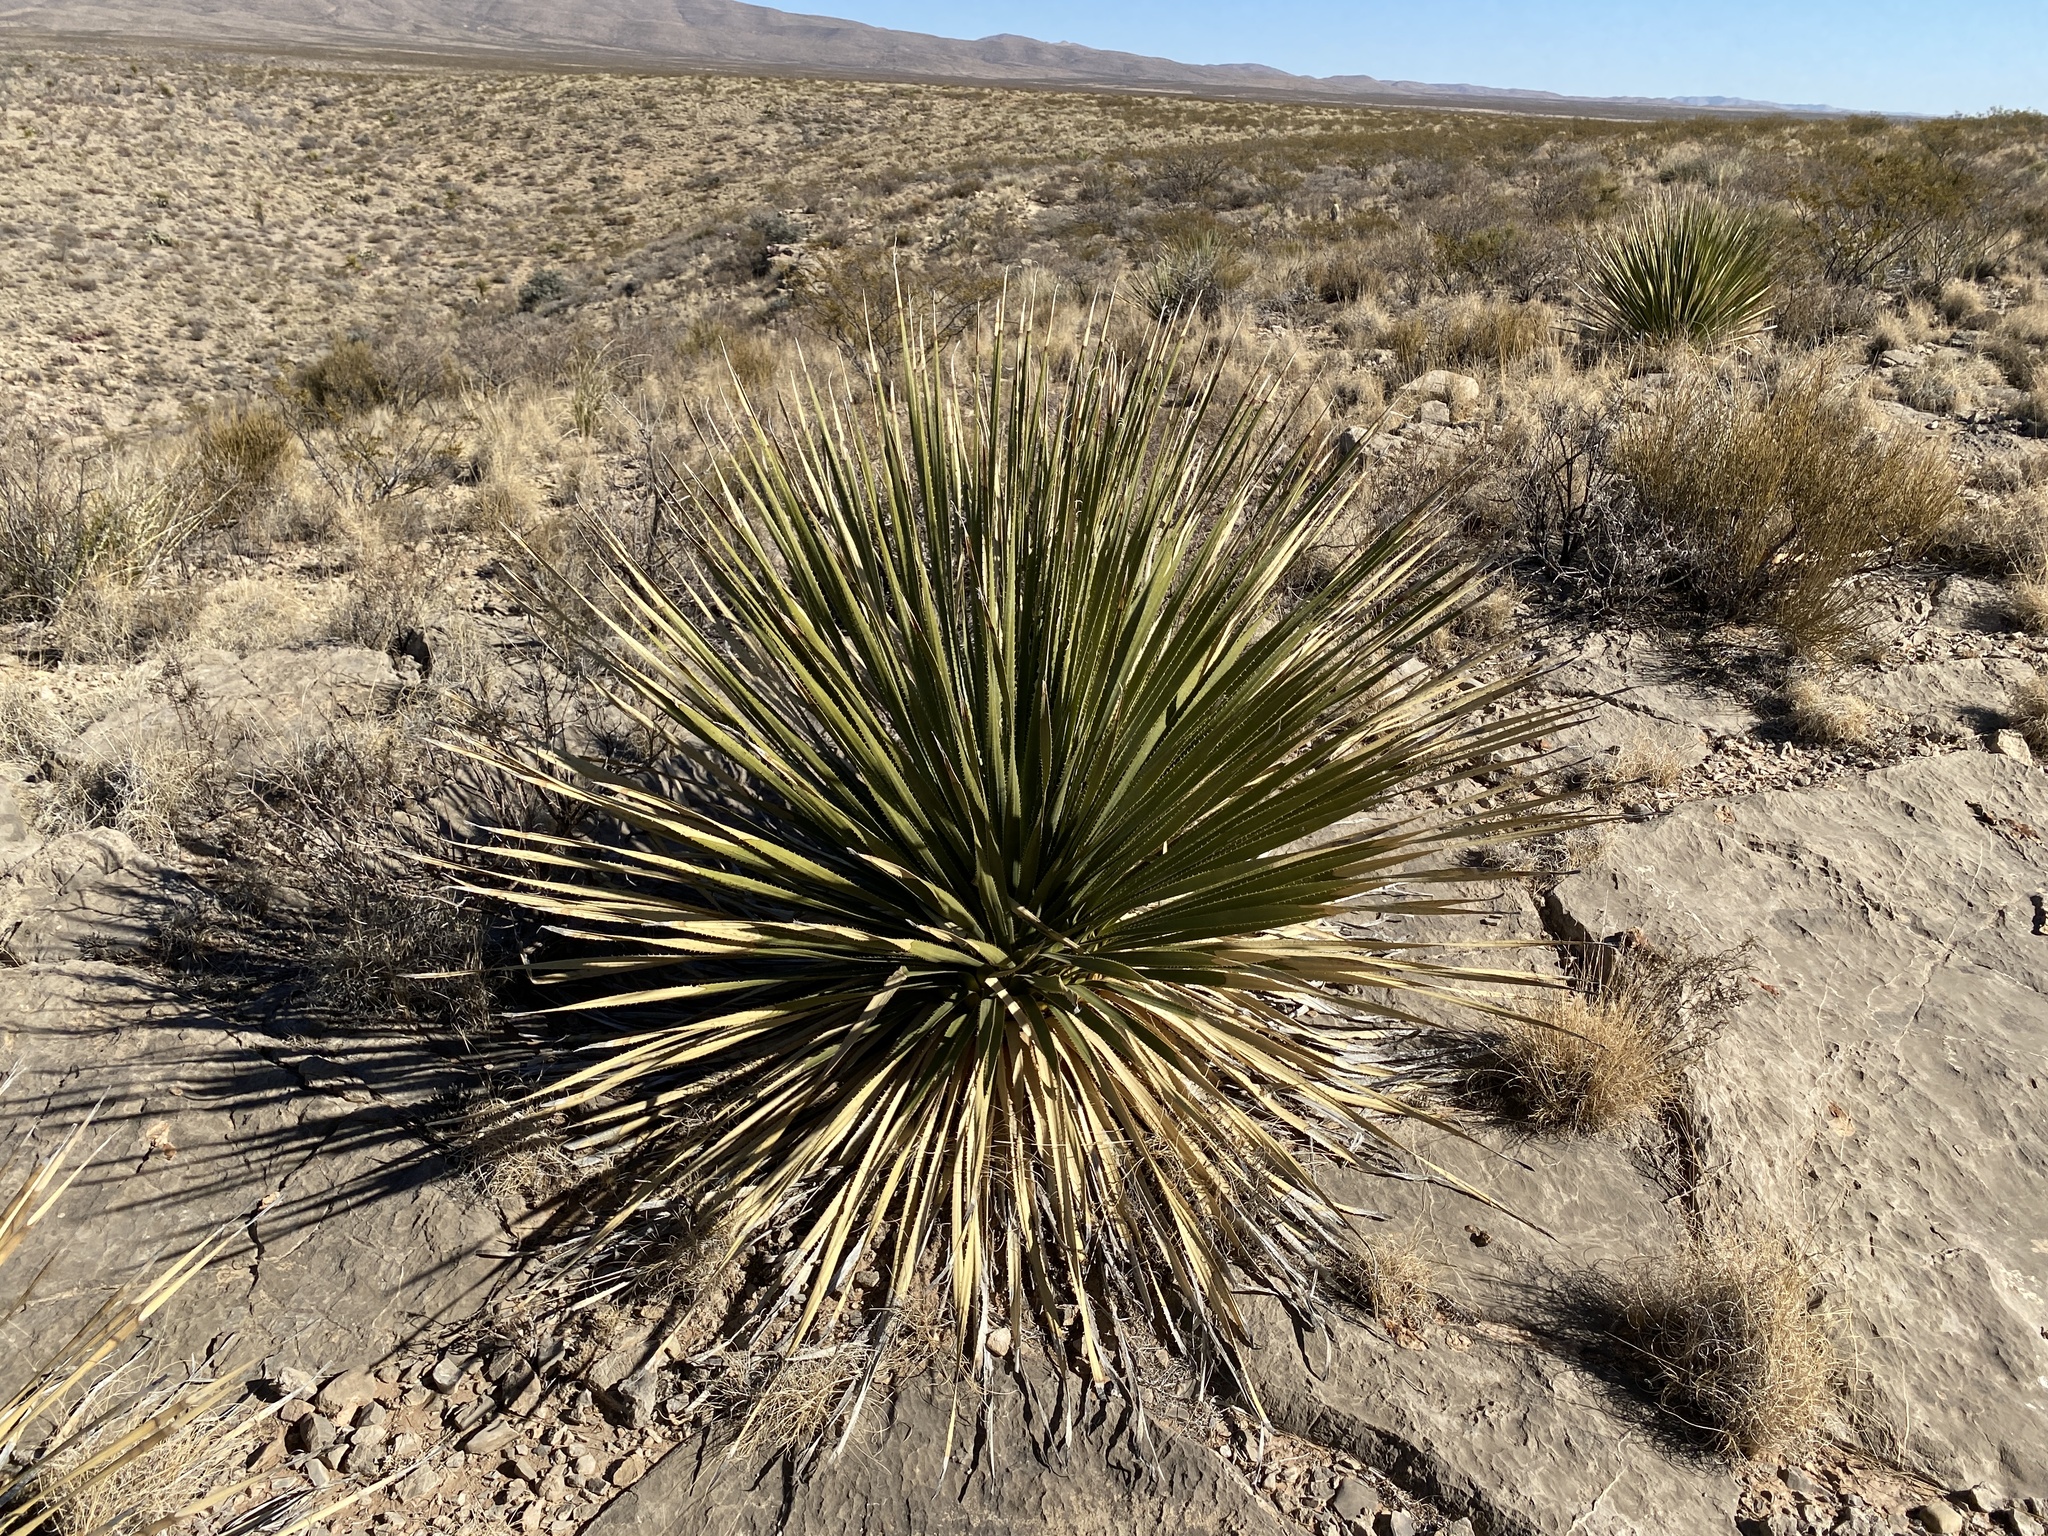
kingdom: Plantae
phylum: Tracheophyta
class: Liliopsida
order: Asparagales
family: Asparagaceae
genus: Dasylirion
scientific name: Dasylirion wheeleri
